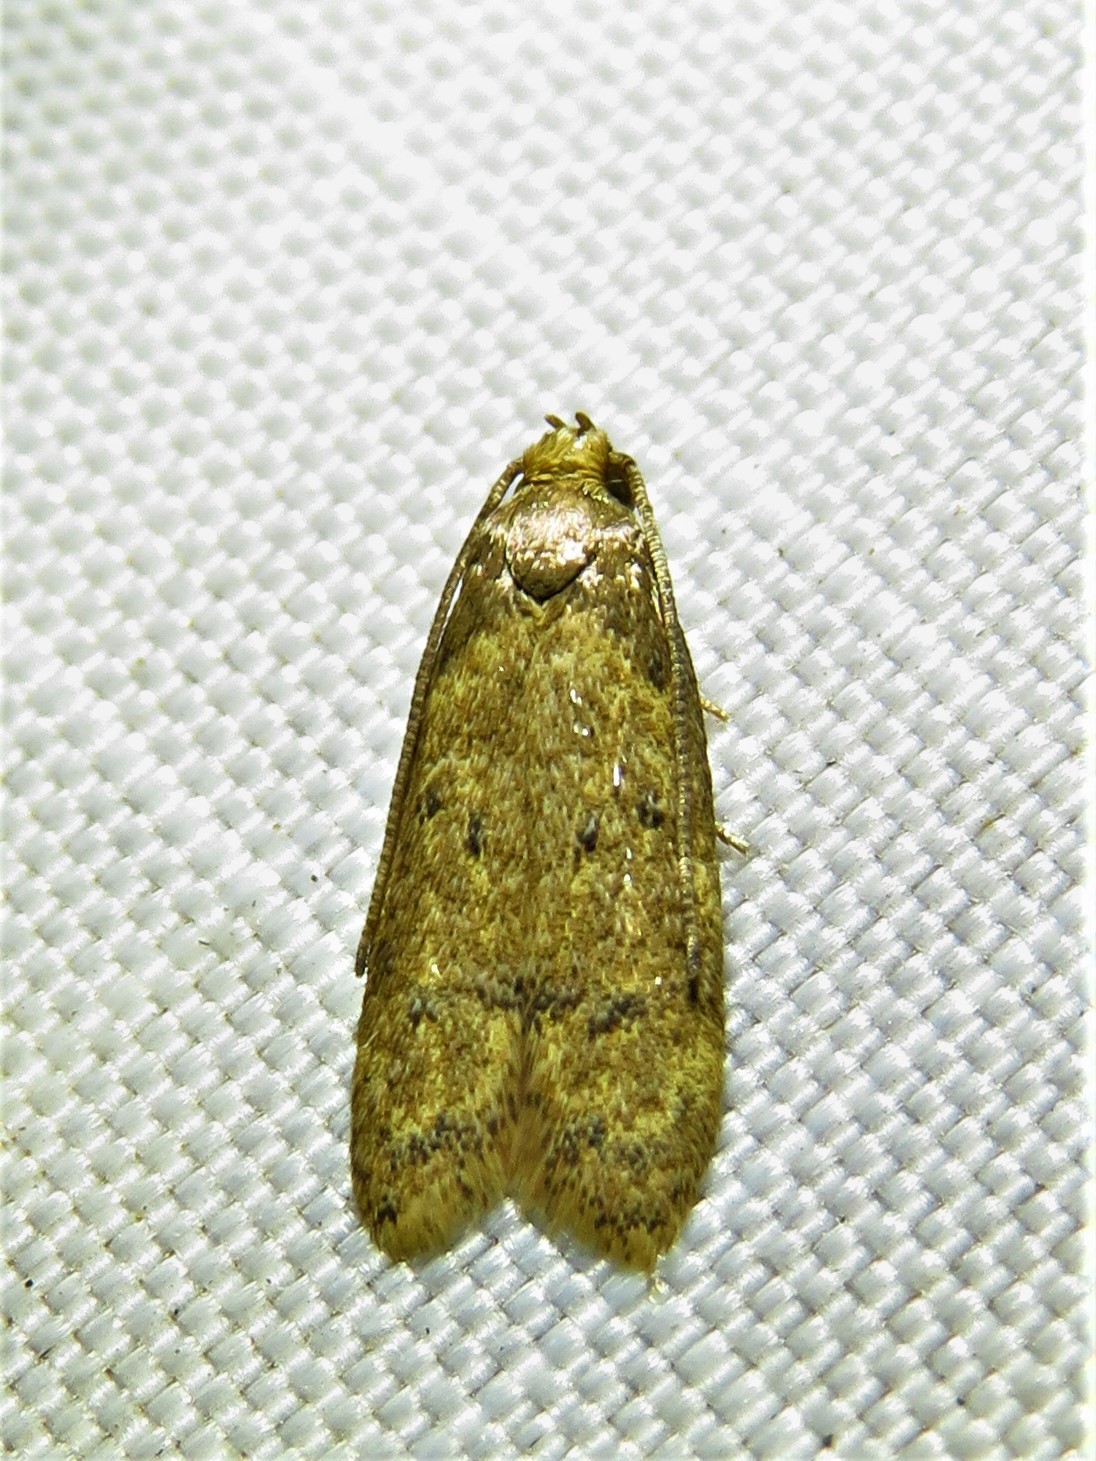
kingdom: Animalia
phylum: Arthropoda
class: Insecta
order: Lepidoptera
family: Autostichidae
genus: Gerdana
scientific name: Gerdana caritella
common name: Gerdana moth
